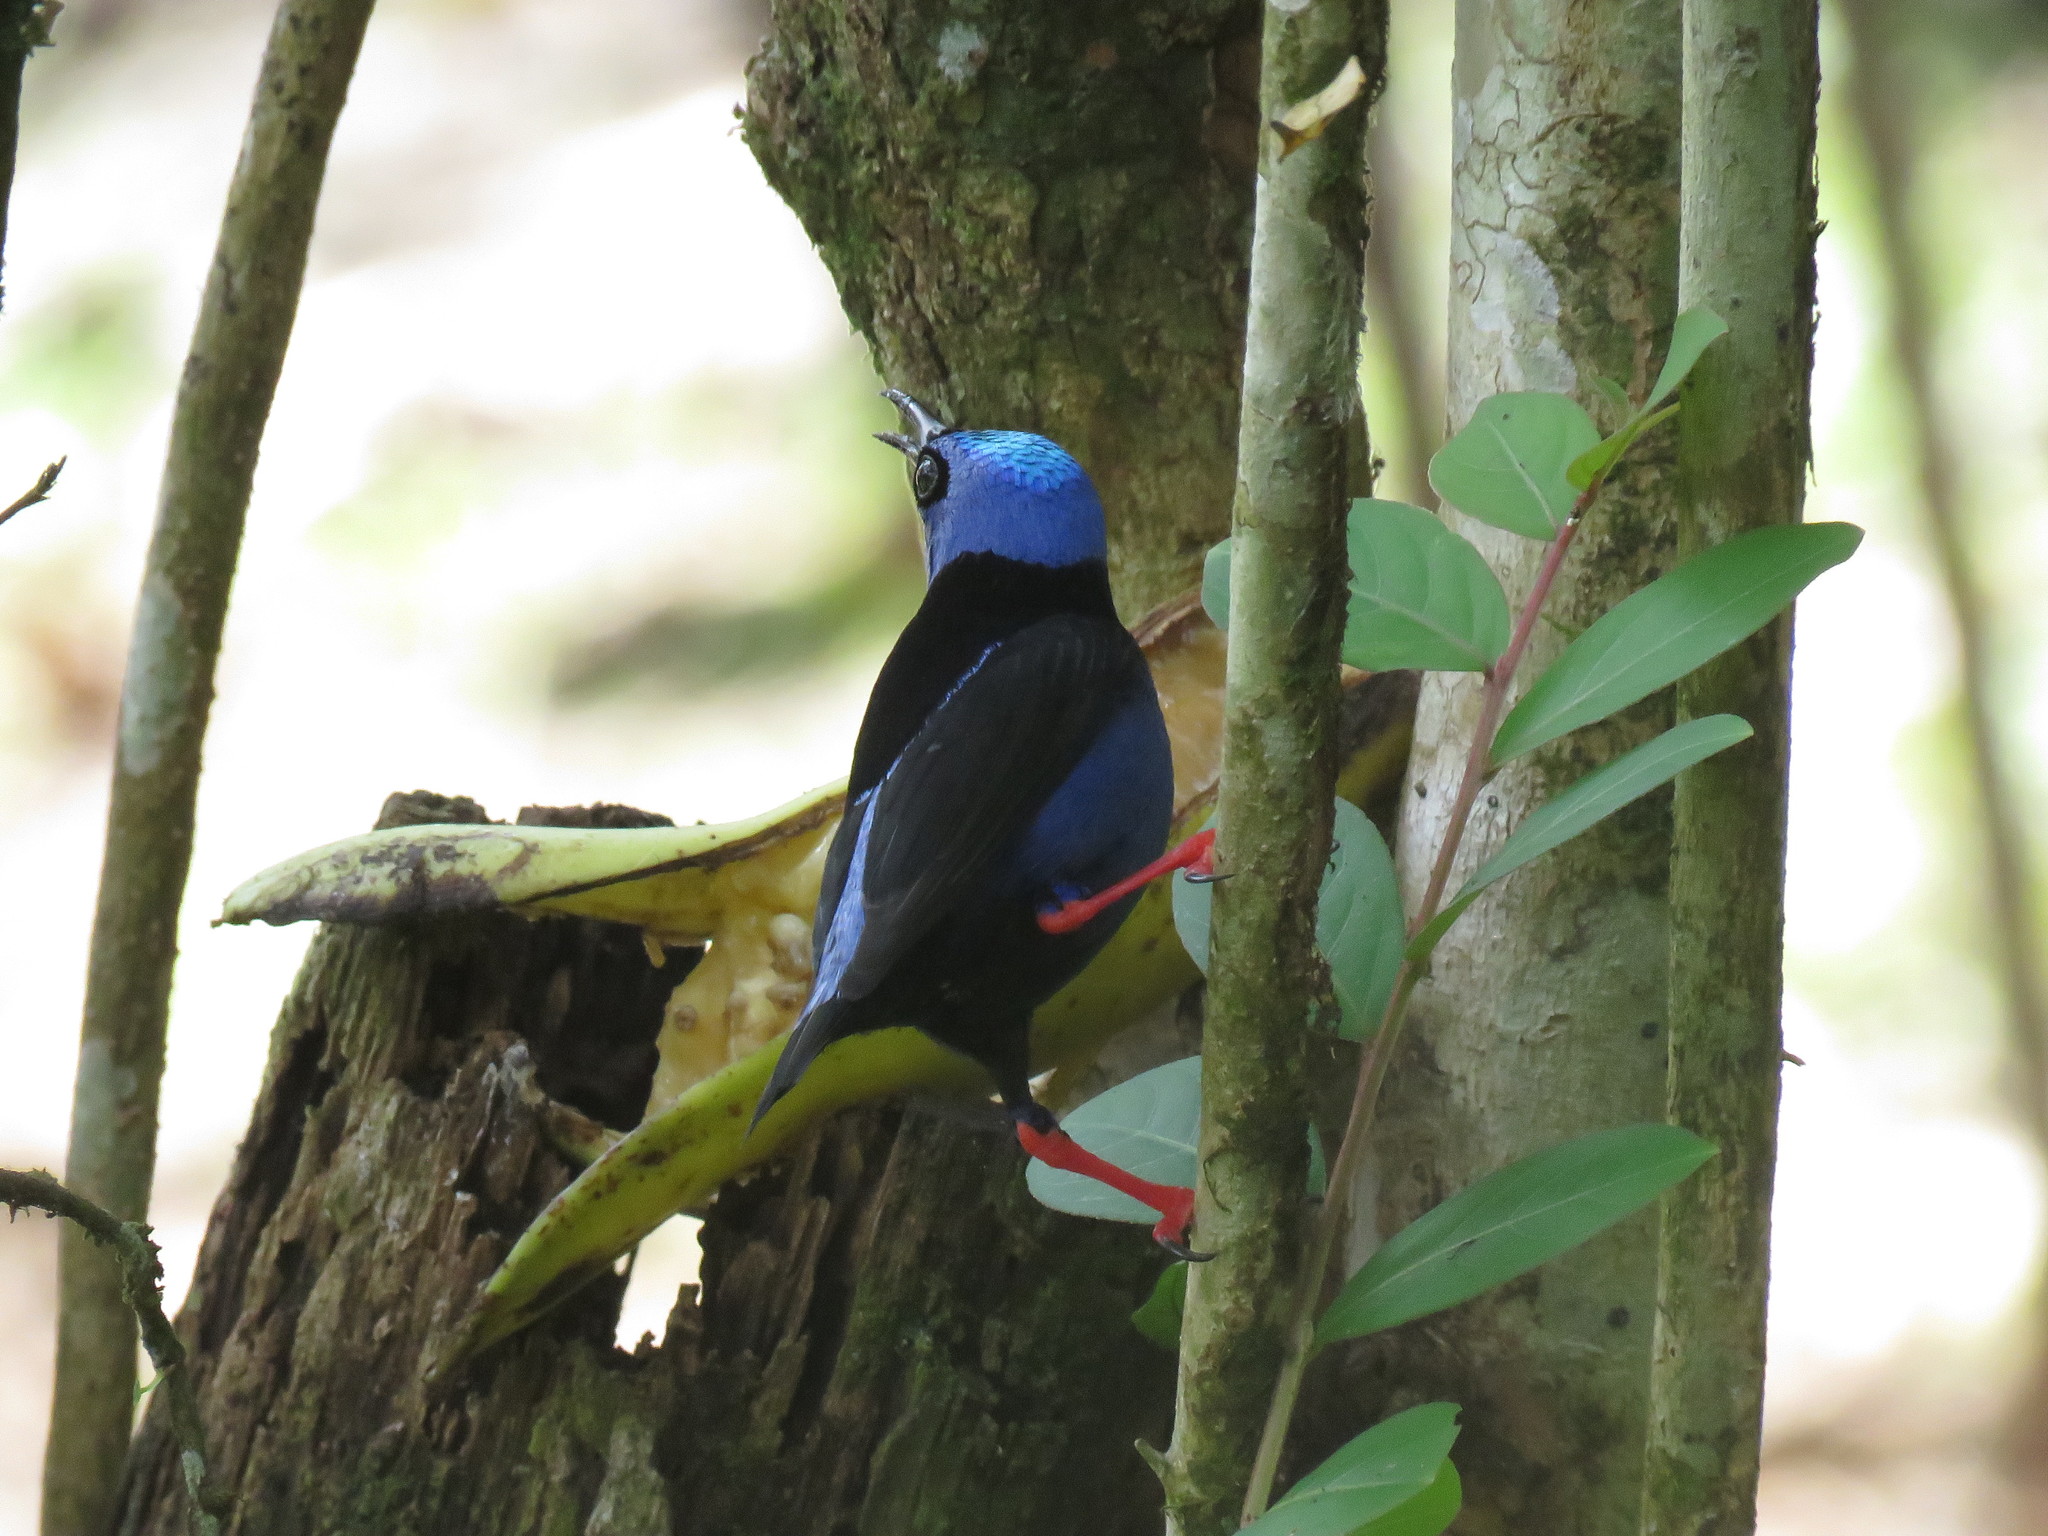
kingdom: Animalia
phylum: Chordata
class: Aves
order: Passeriformes
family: Thraupidae
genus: Cyanerpes
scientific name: Cyanerpes cyaneus
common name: Red-legged honeycreeper
